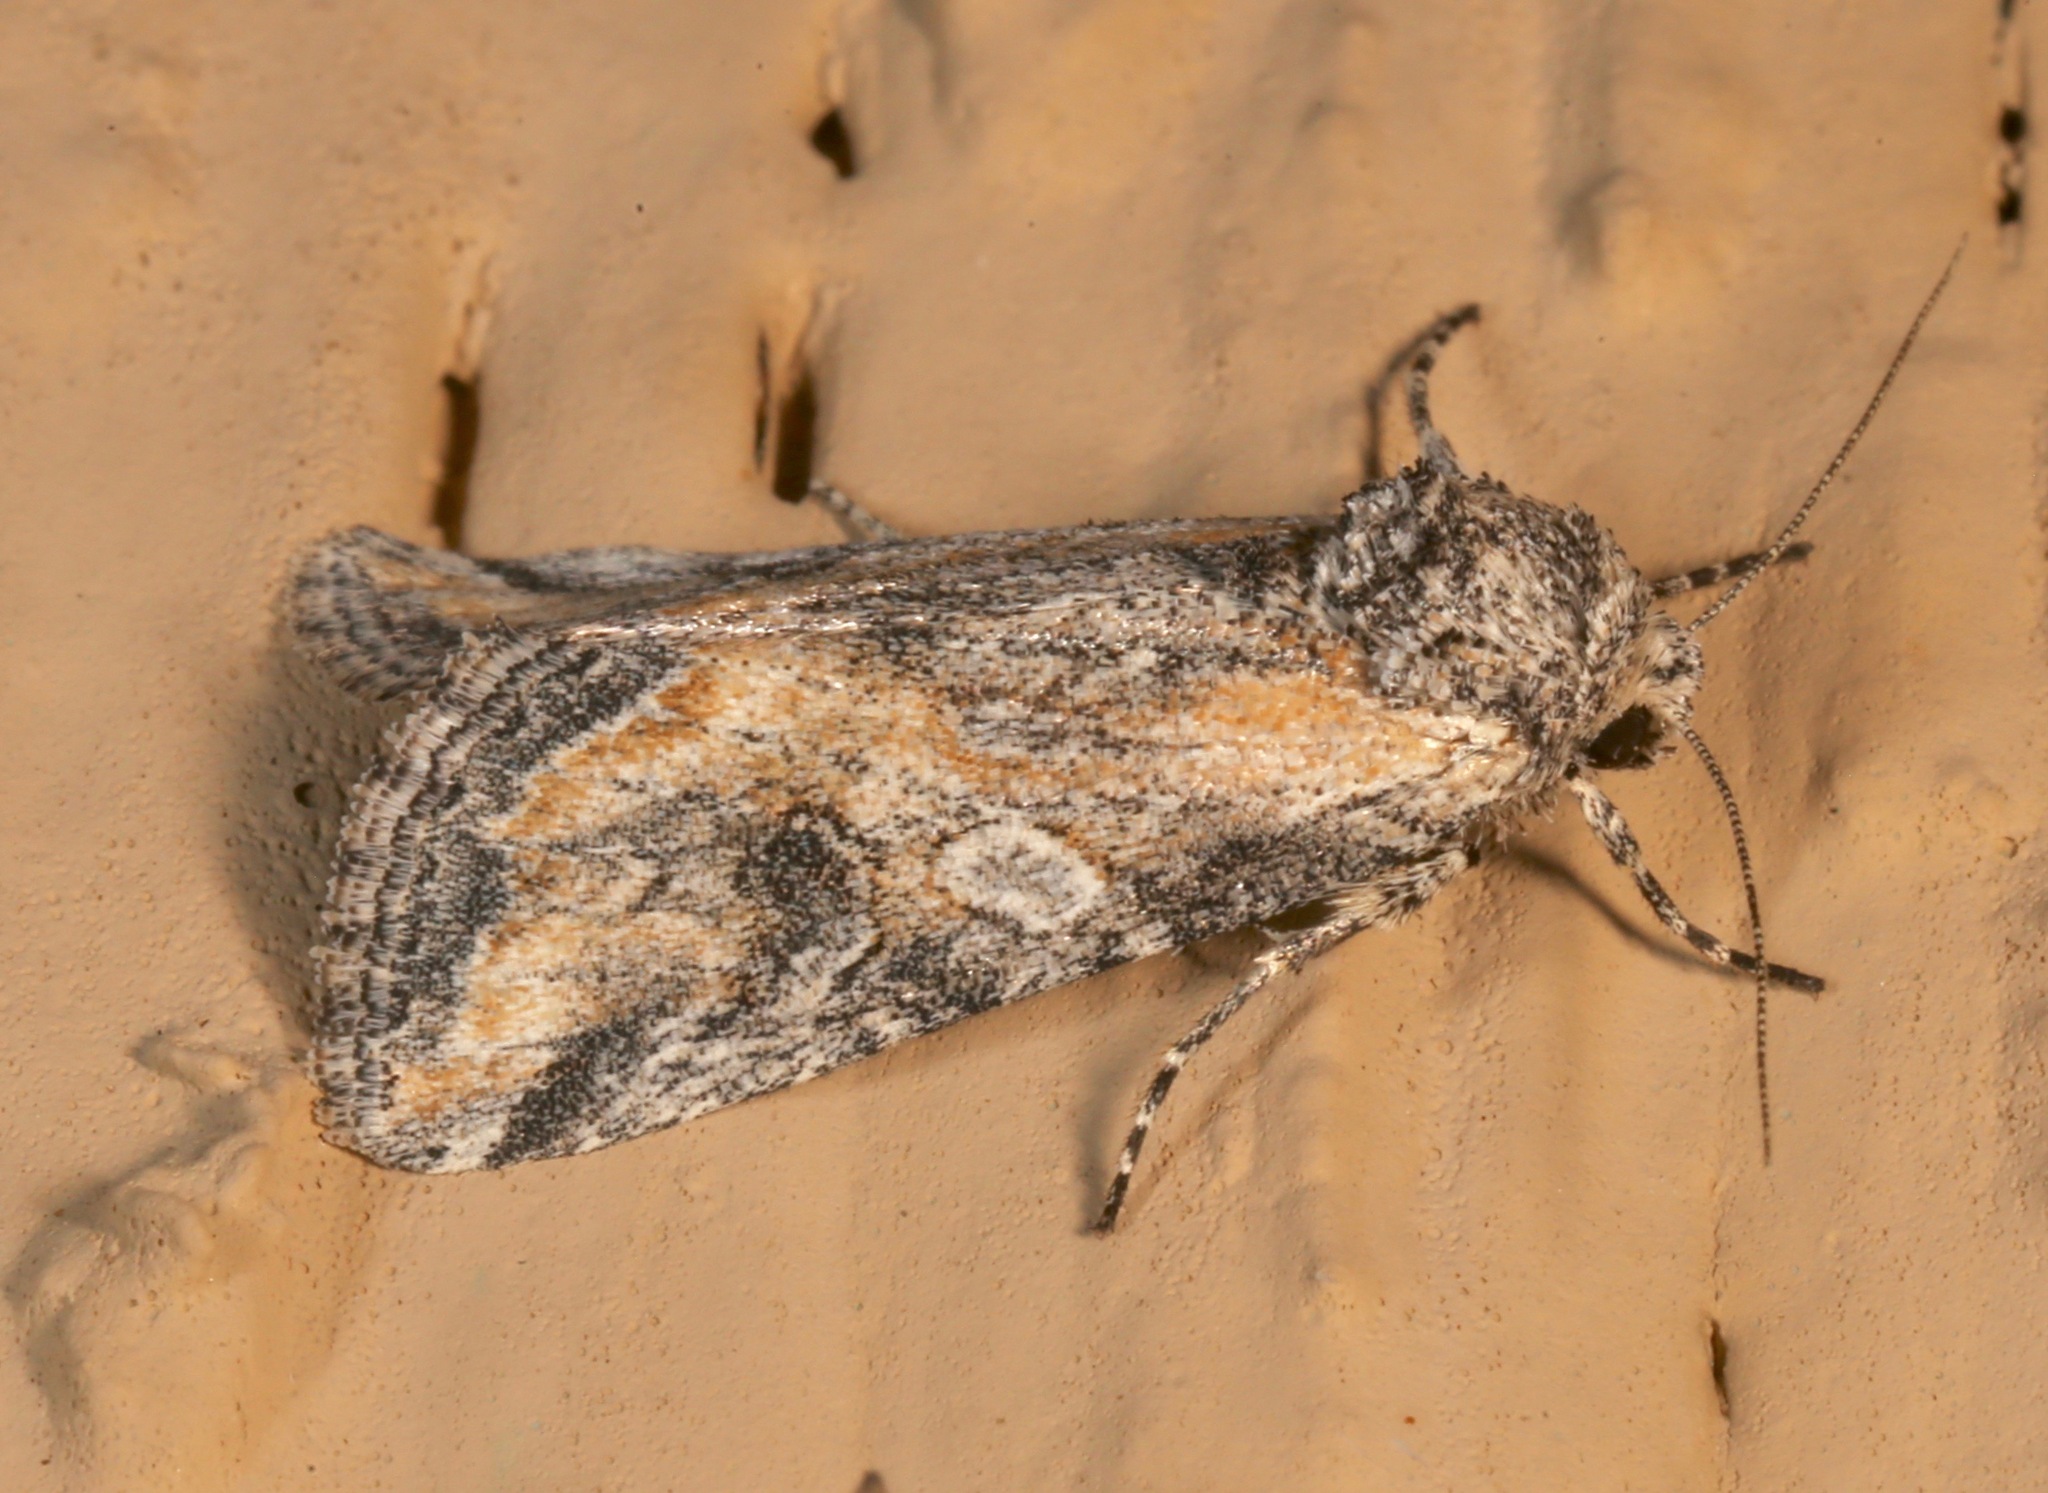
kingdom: Animalia
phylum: Arthropoda
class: Insecta
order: Lepidoptera
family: Noctuidae
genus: Hadenella
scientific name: Hadenella pergentilis
